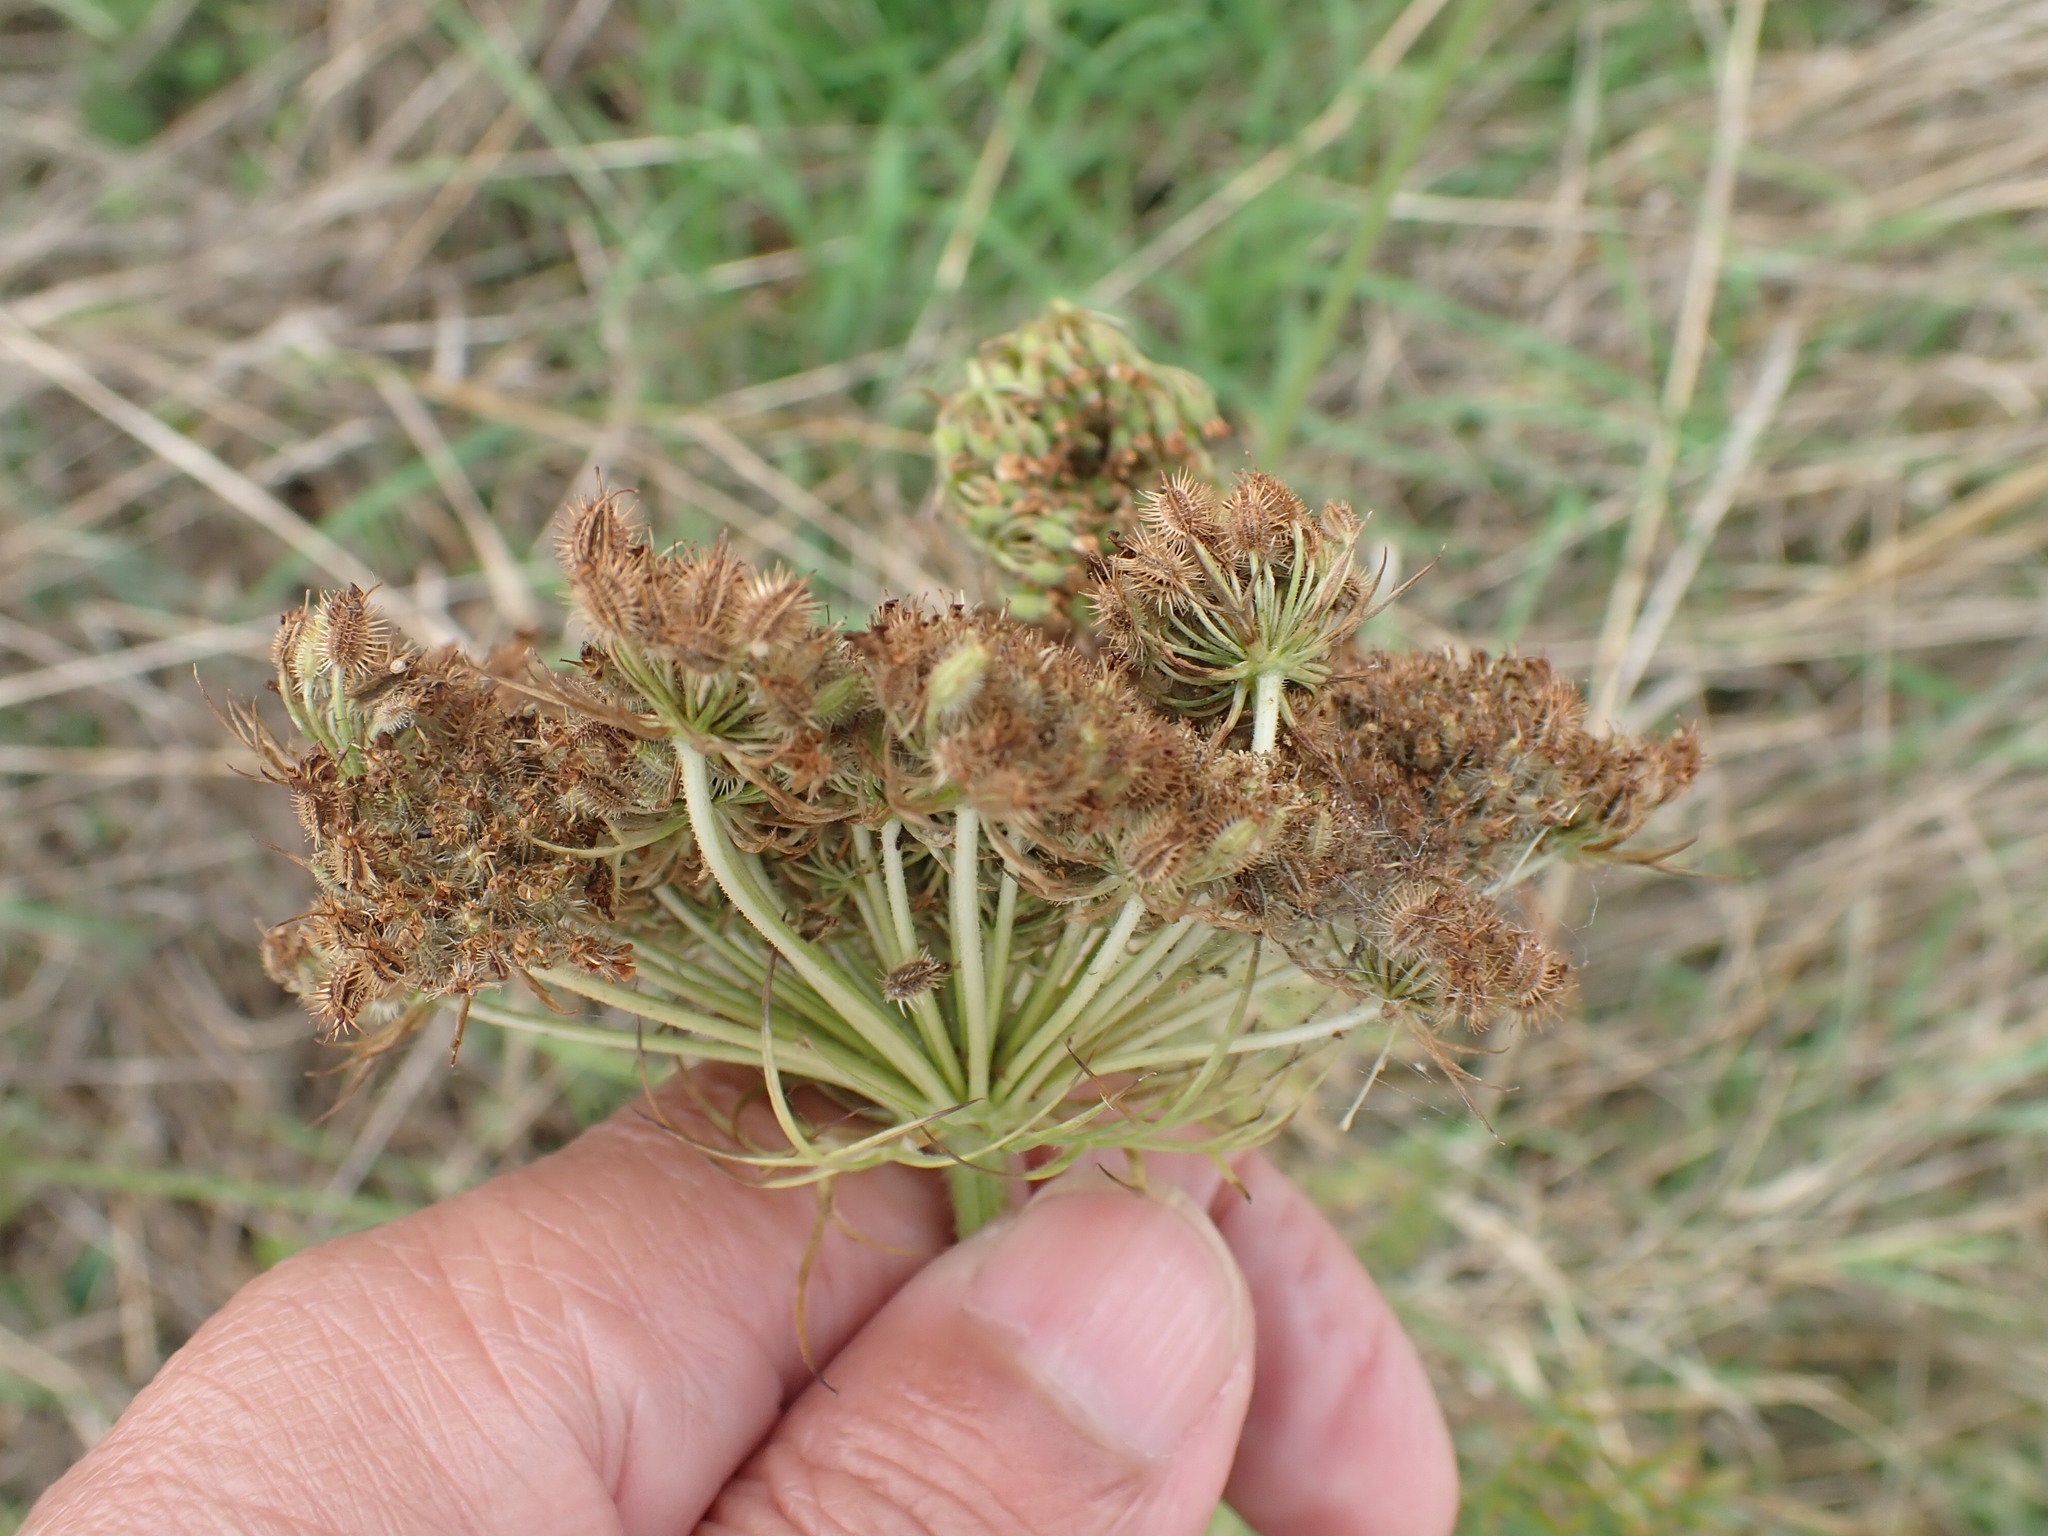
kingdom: Plantae
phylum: Tracheophyta
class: Magnoliopsida
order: Apiales
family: Apiaceae
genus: Daucus
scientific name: Daucus carota
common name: Wild carrot
